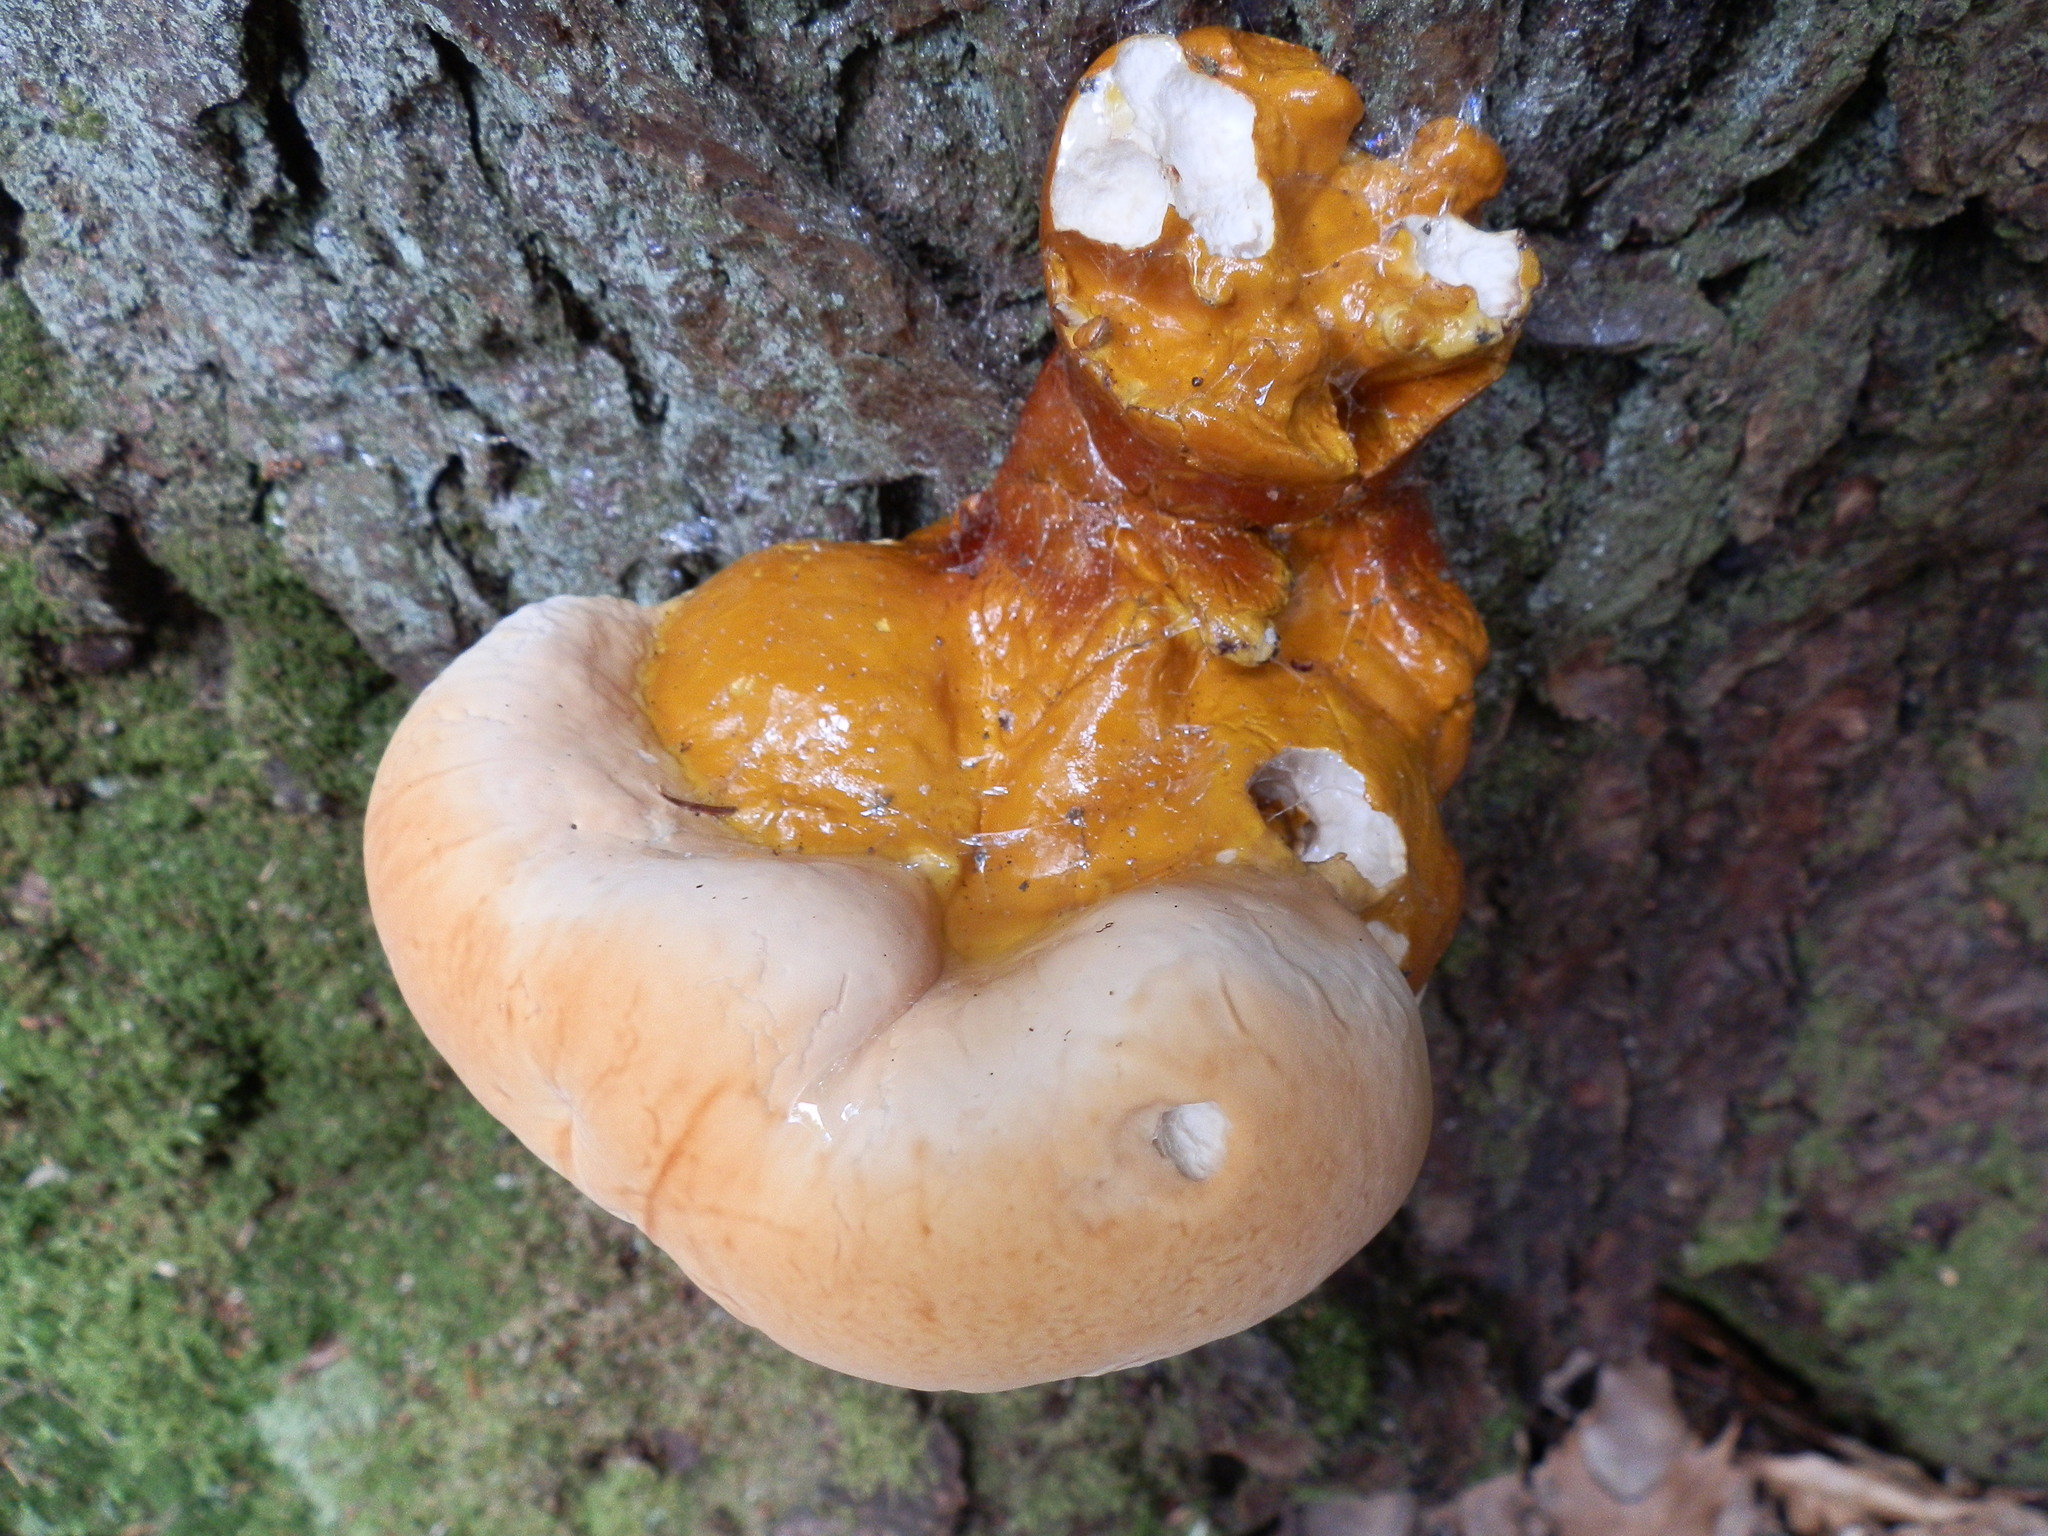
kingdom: Fungi
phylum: Basidiomycota
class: Agaricomycetes
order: Polyporales
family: Polyporaceae
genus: Ganoderma
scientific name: Ganoderma tsugae
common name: Hemlock varnish shelf
